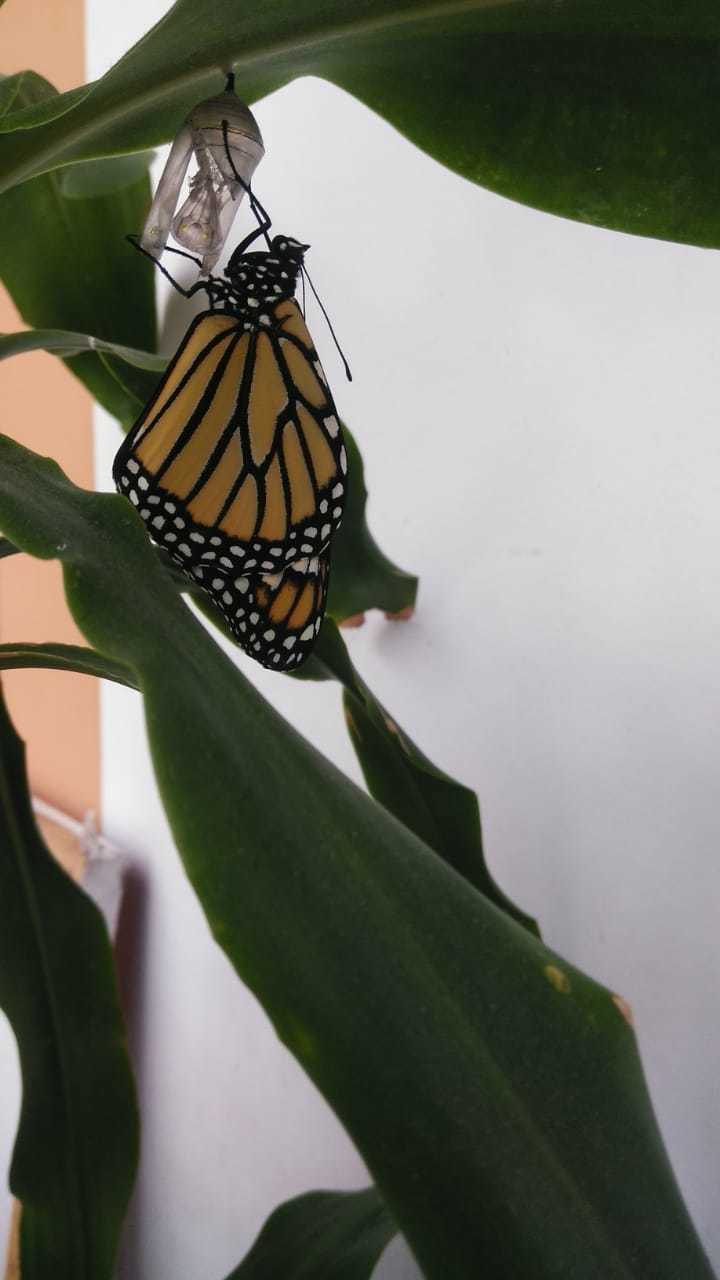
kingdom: Animalia
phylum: Arthropoda
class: Insecta
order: Lepidoptera
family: Nymphalidae
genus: Danaus
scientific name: Danaus plexippus
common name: Monarch
